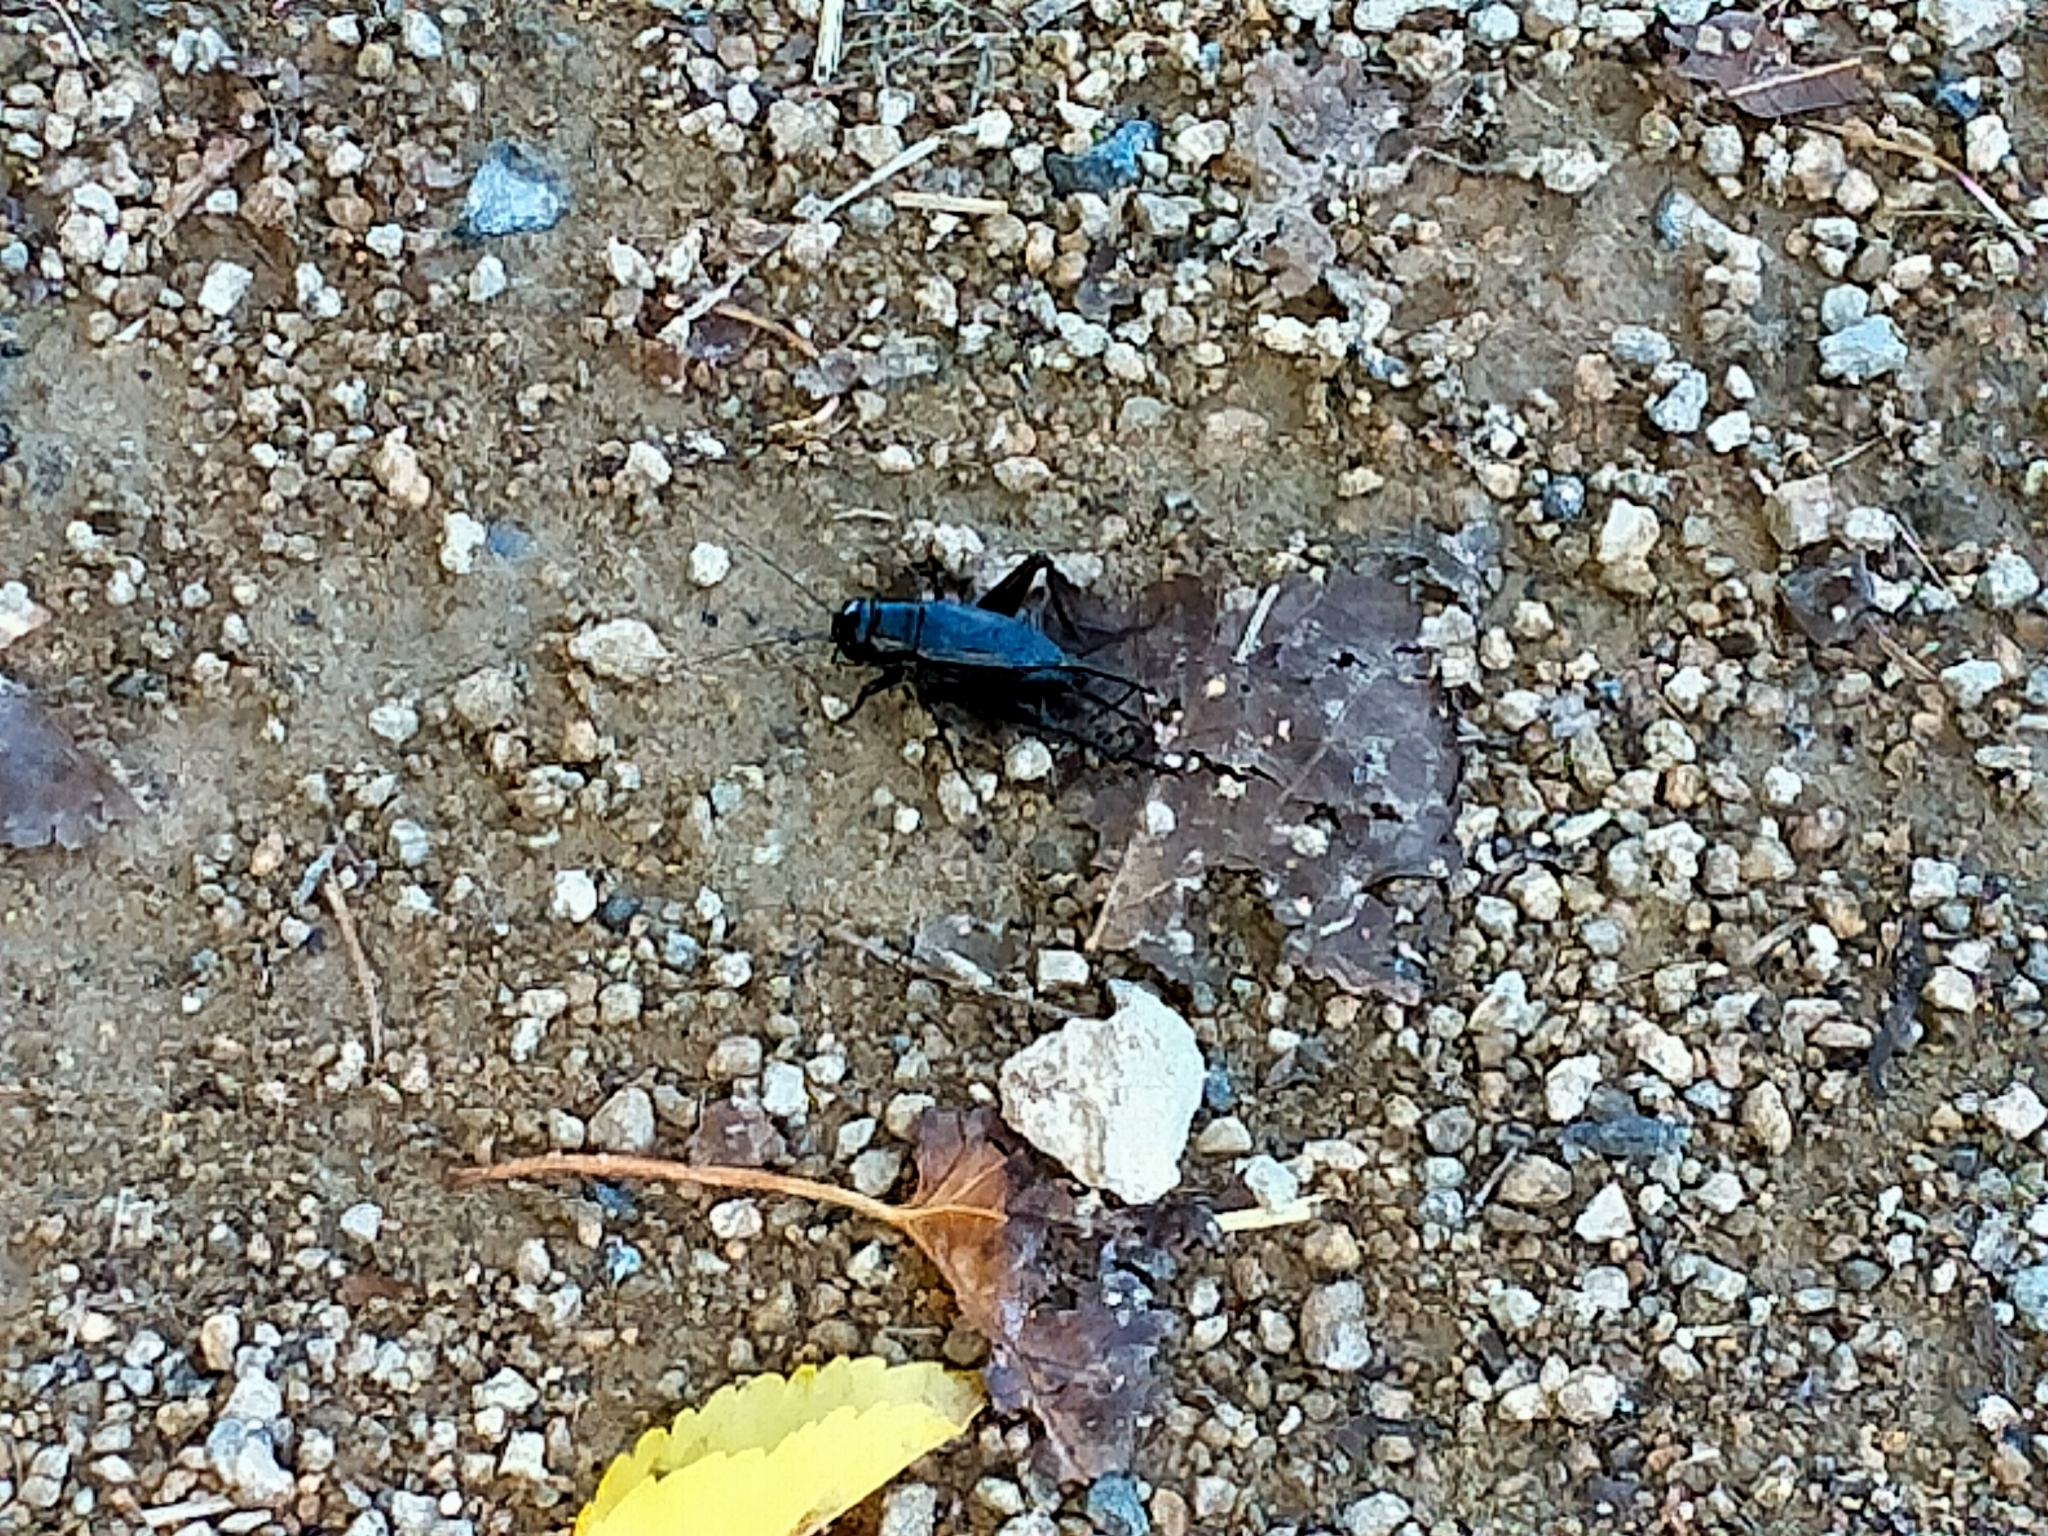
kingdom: Animalia
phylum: Arthropoda
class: Insecta
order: Orthoptera
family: Gryllidae
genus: Teleogryllus
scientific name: Teleogryllus commodus
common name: Black field cricket
